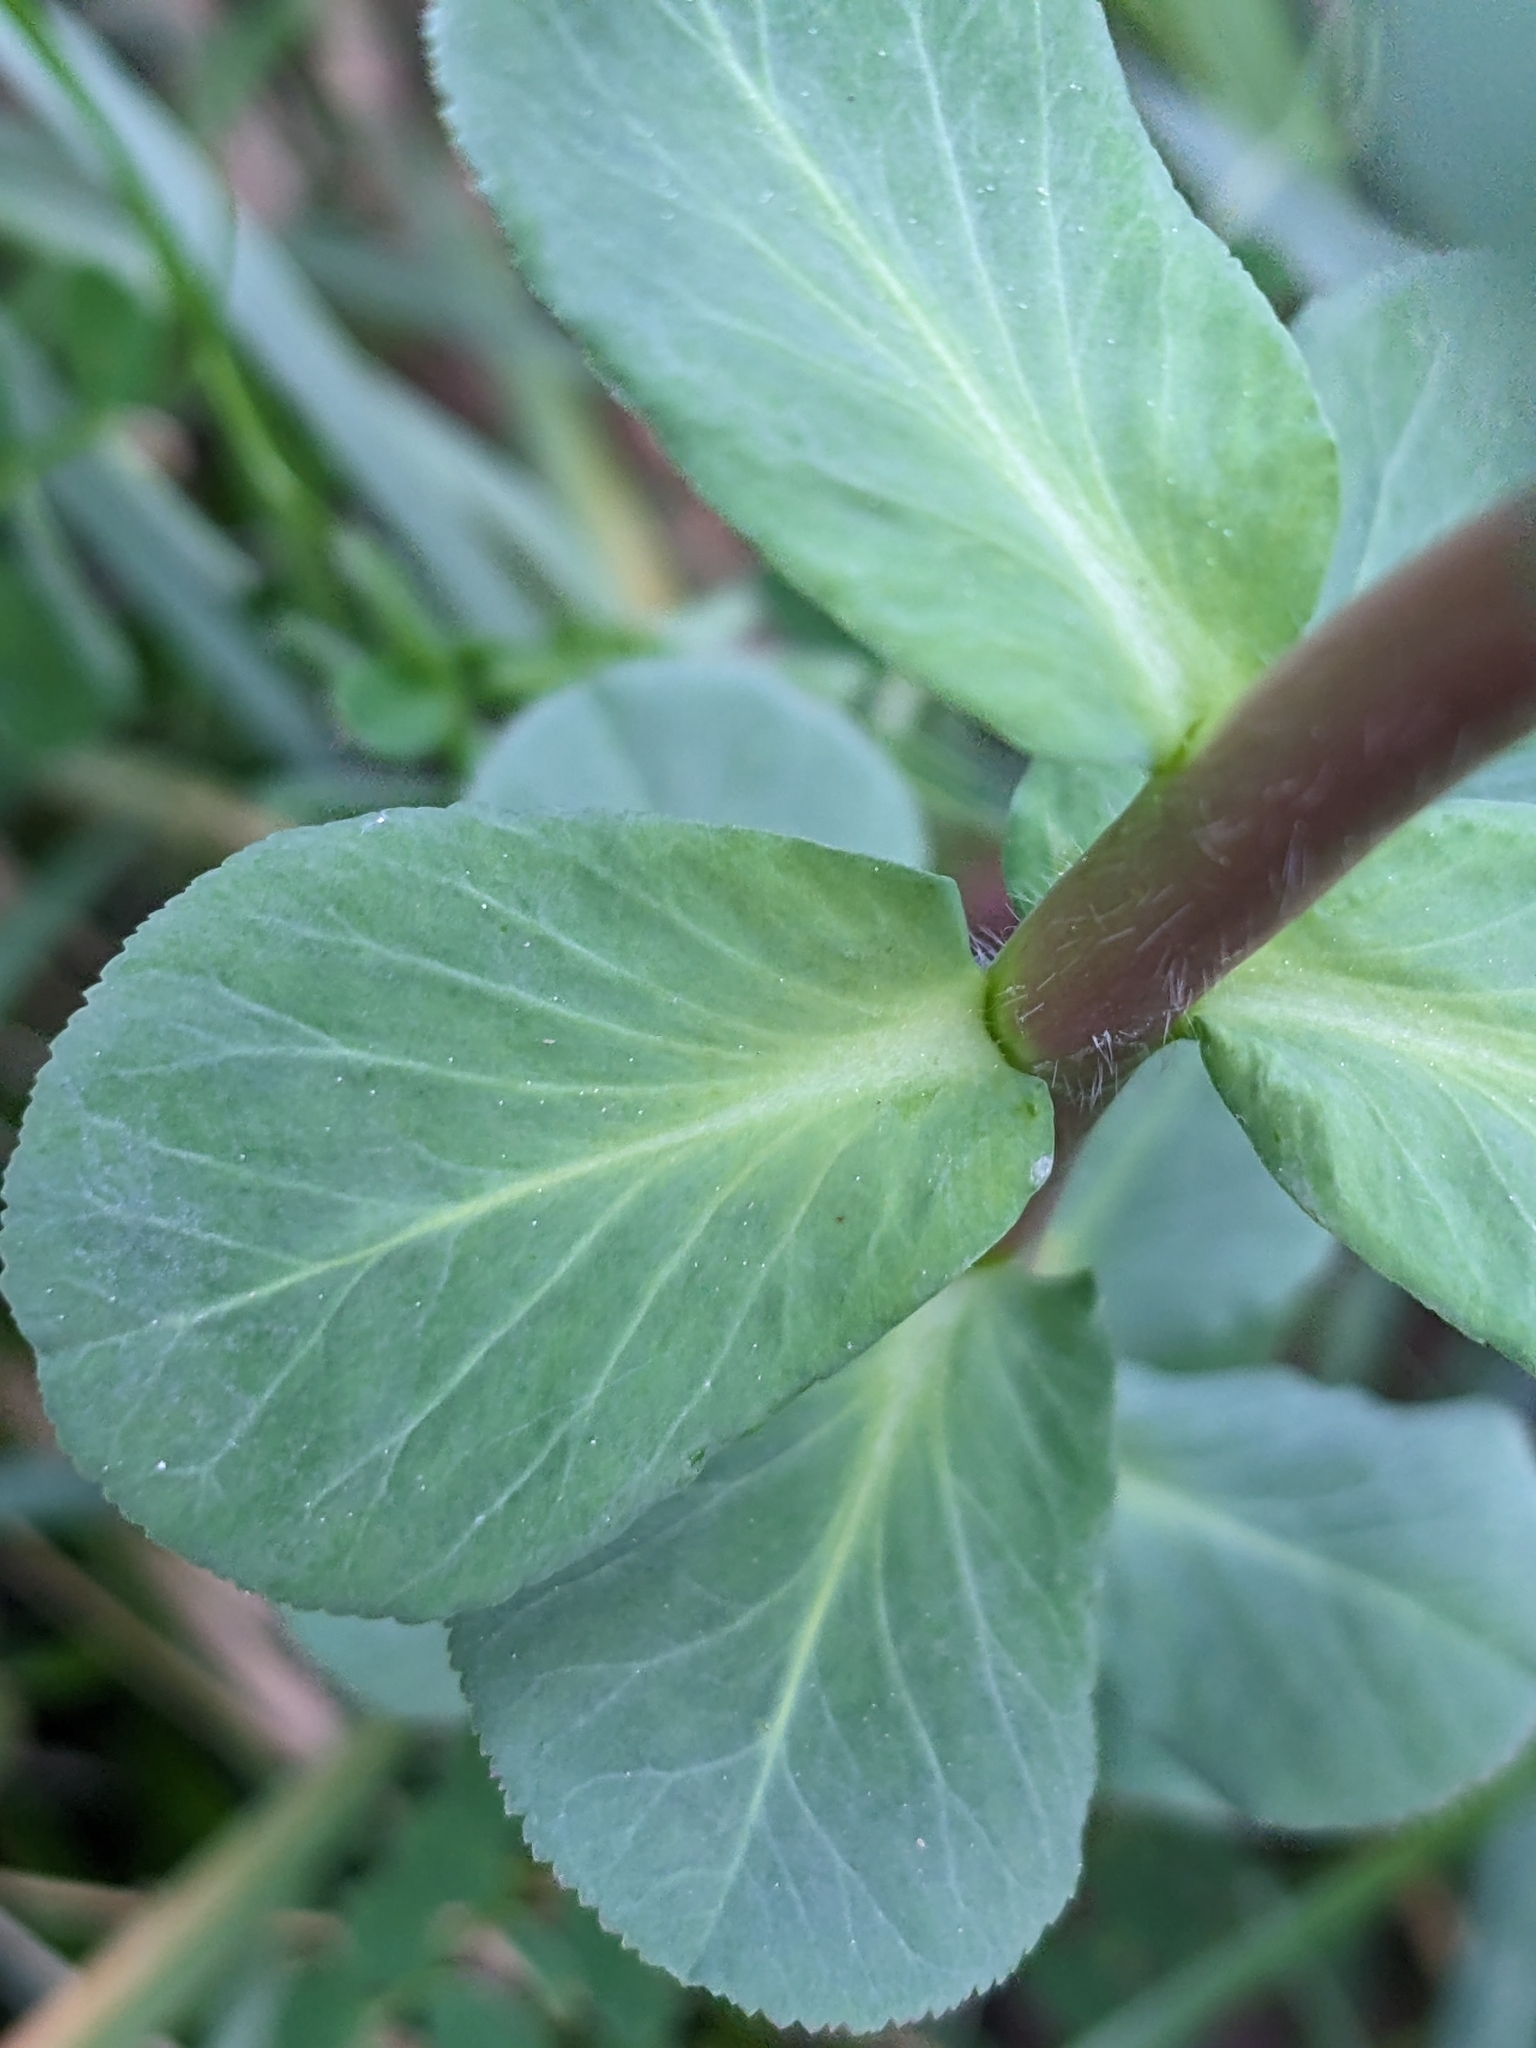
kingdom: Plantae
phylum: Tracheophyta
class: Magnoliopsida
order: Malpighiales
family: Euphorbiaceae
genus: Euphorbia
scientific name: Euphorbia helioscopia
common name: Sun spurge
